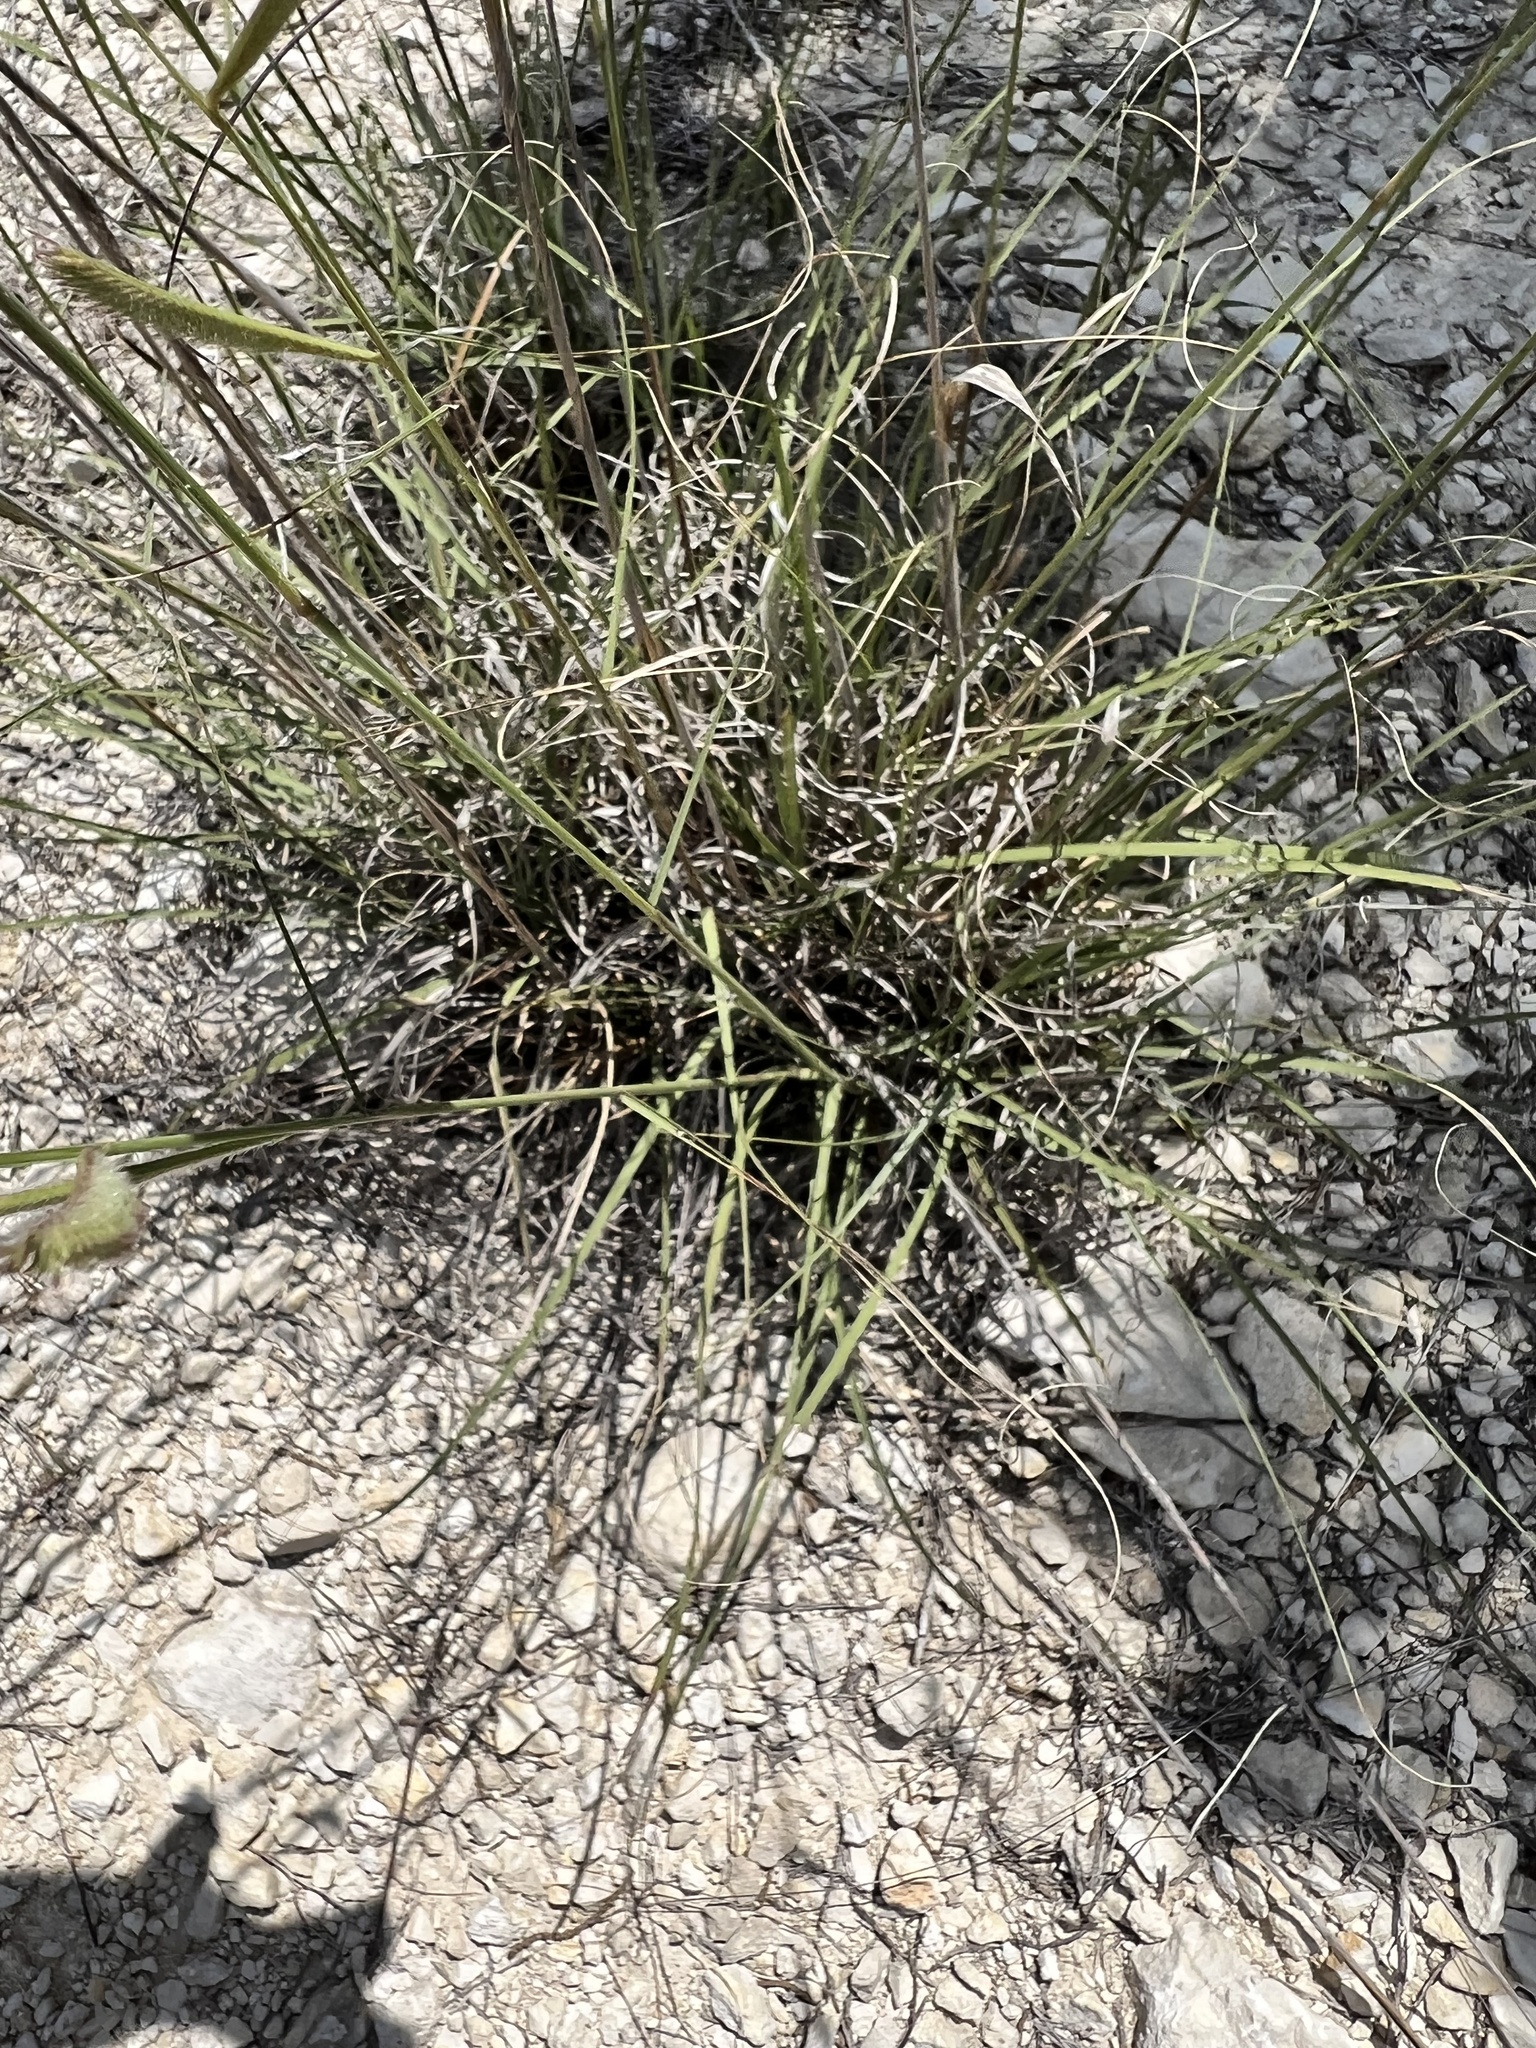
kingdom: Plantae
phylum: Tracheophyta
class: Liliopsida
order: Poales
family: Poaceae
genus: Bouteloua
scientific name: Bouteloua pectinata
